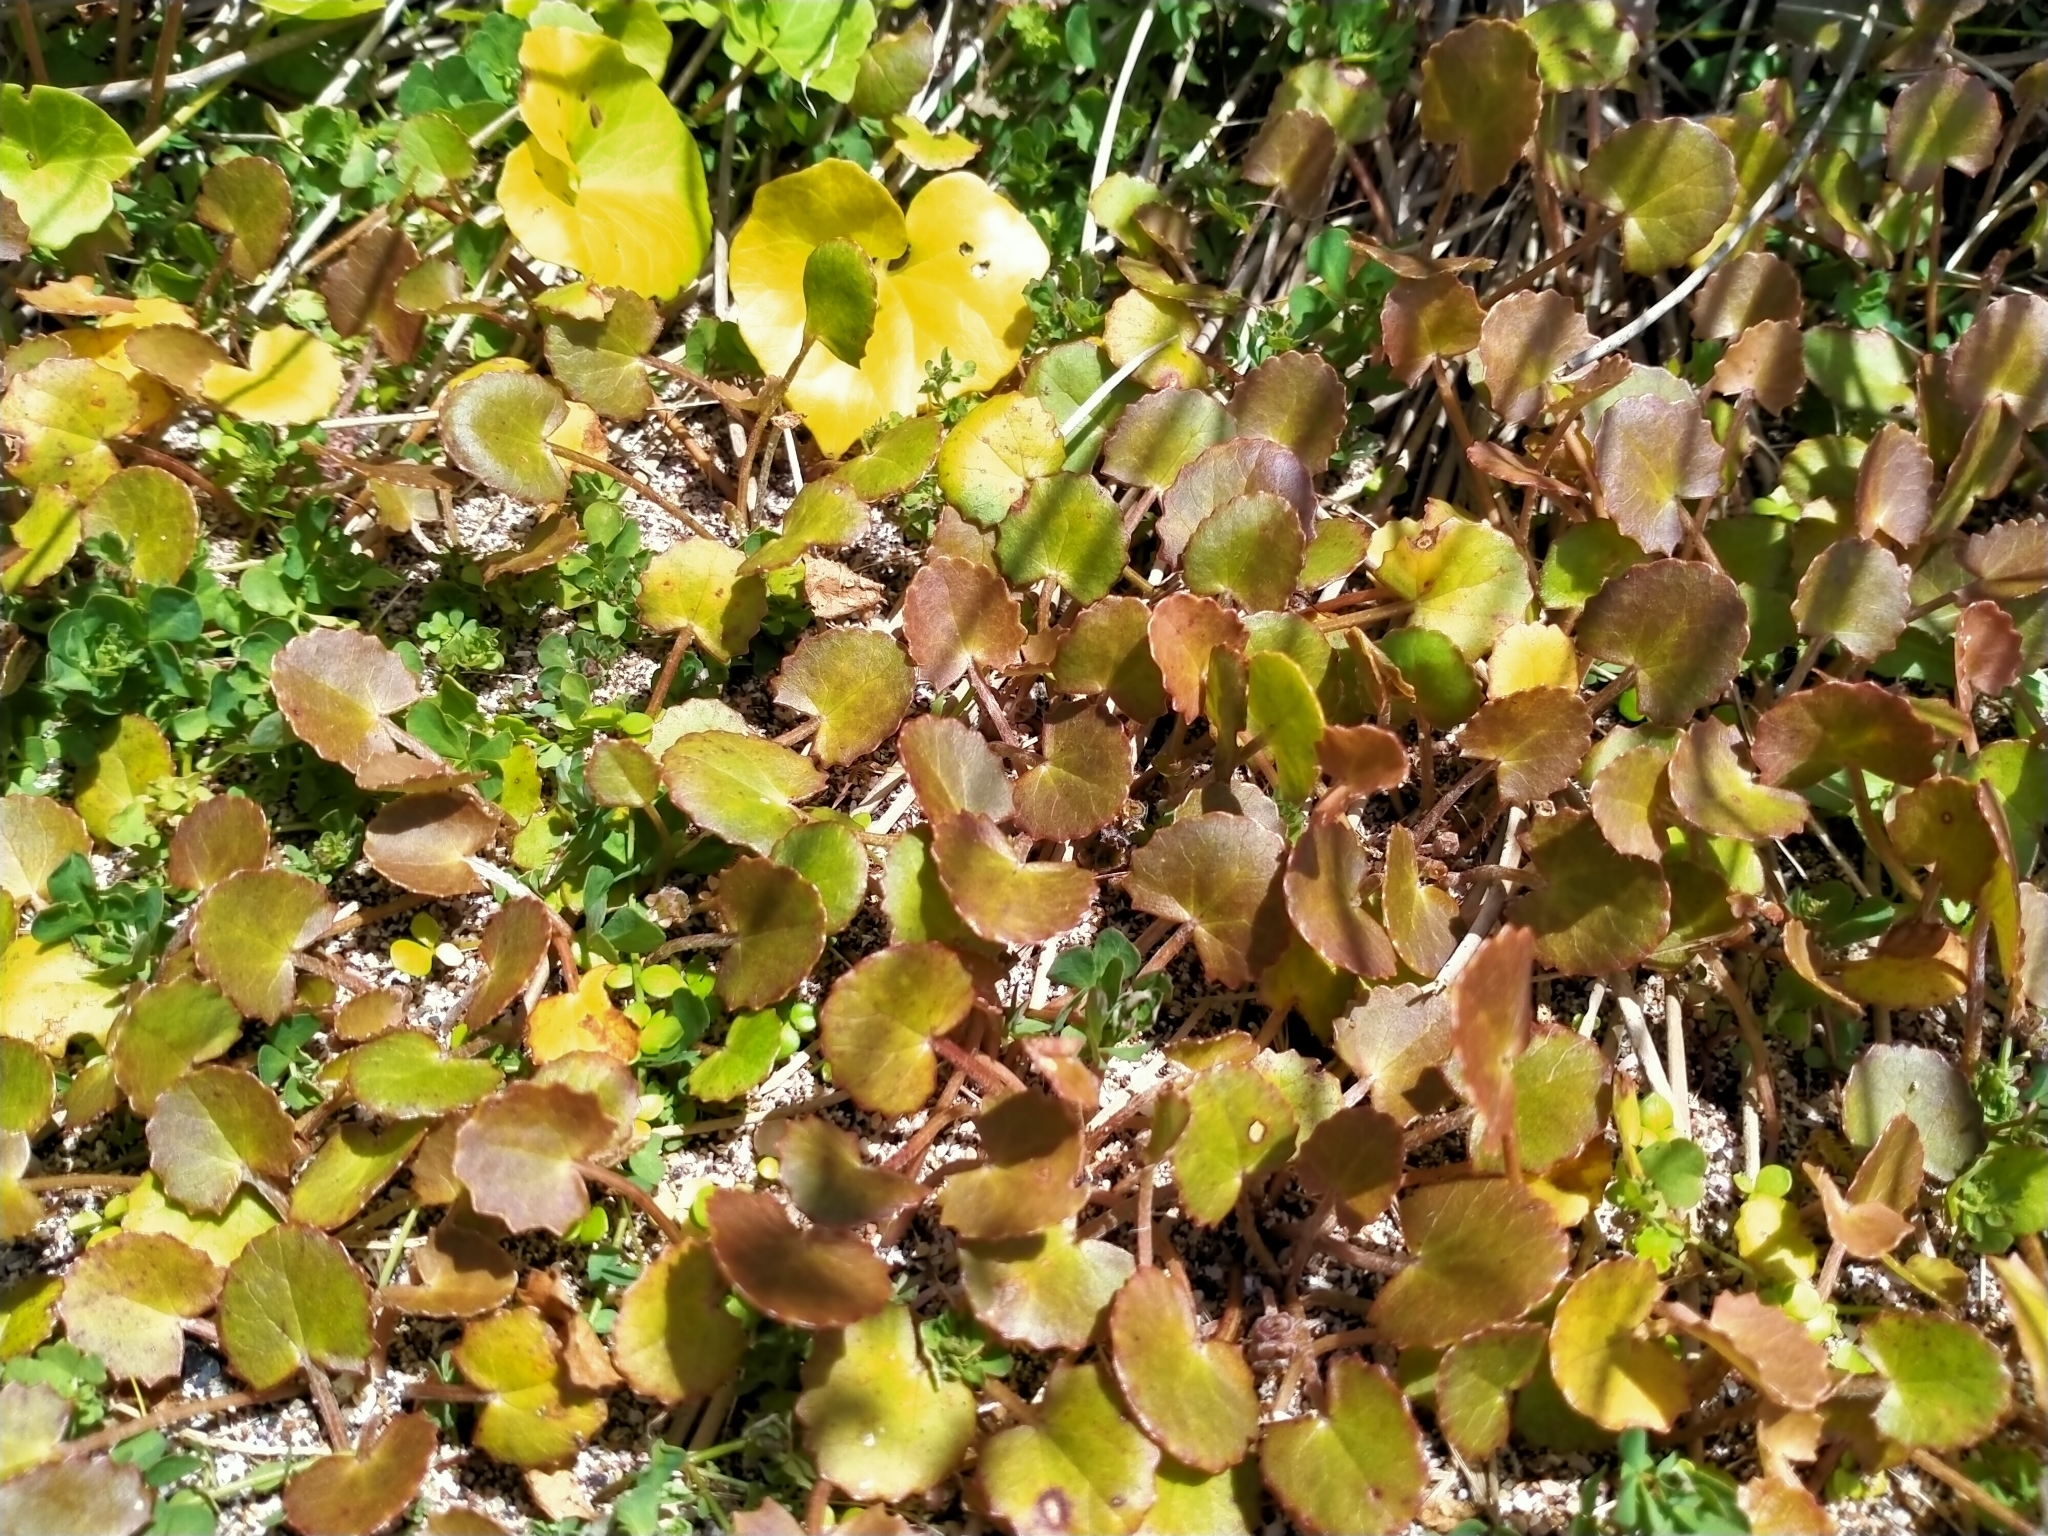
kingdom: Plantae
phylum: Tracheophyta
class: Magnoliopsida
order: Apiales
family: Apiaceae
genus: Centella
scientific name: Centella uniflora
